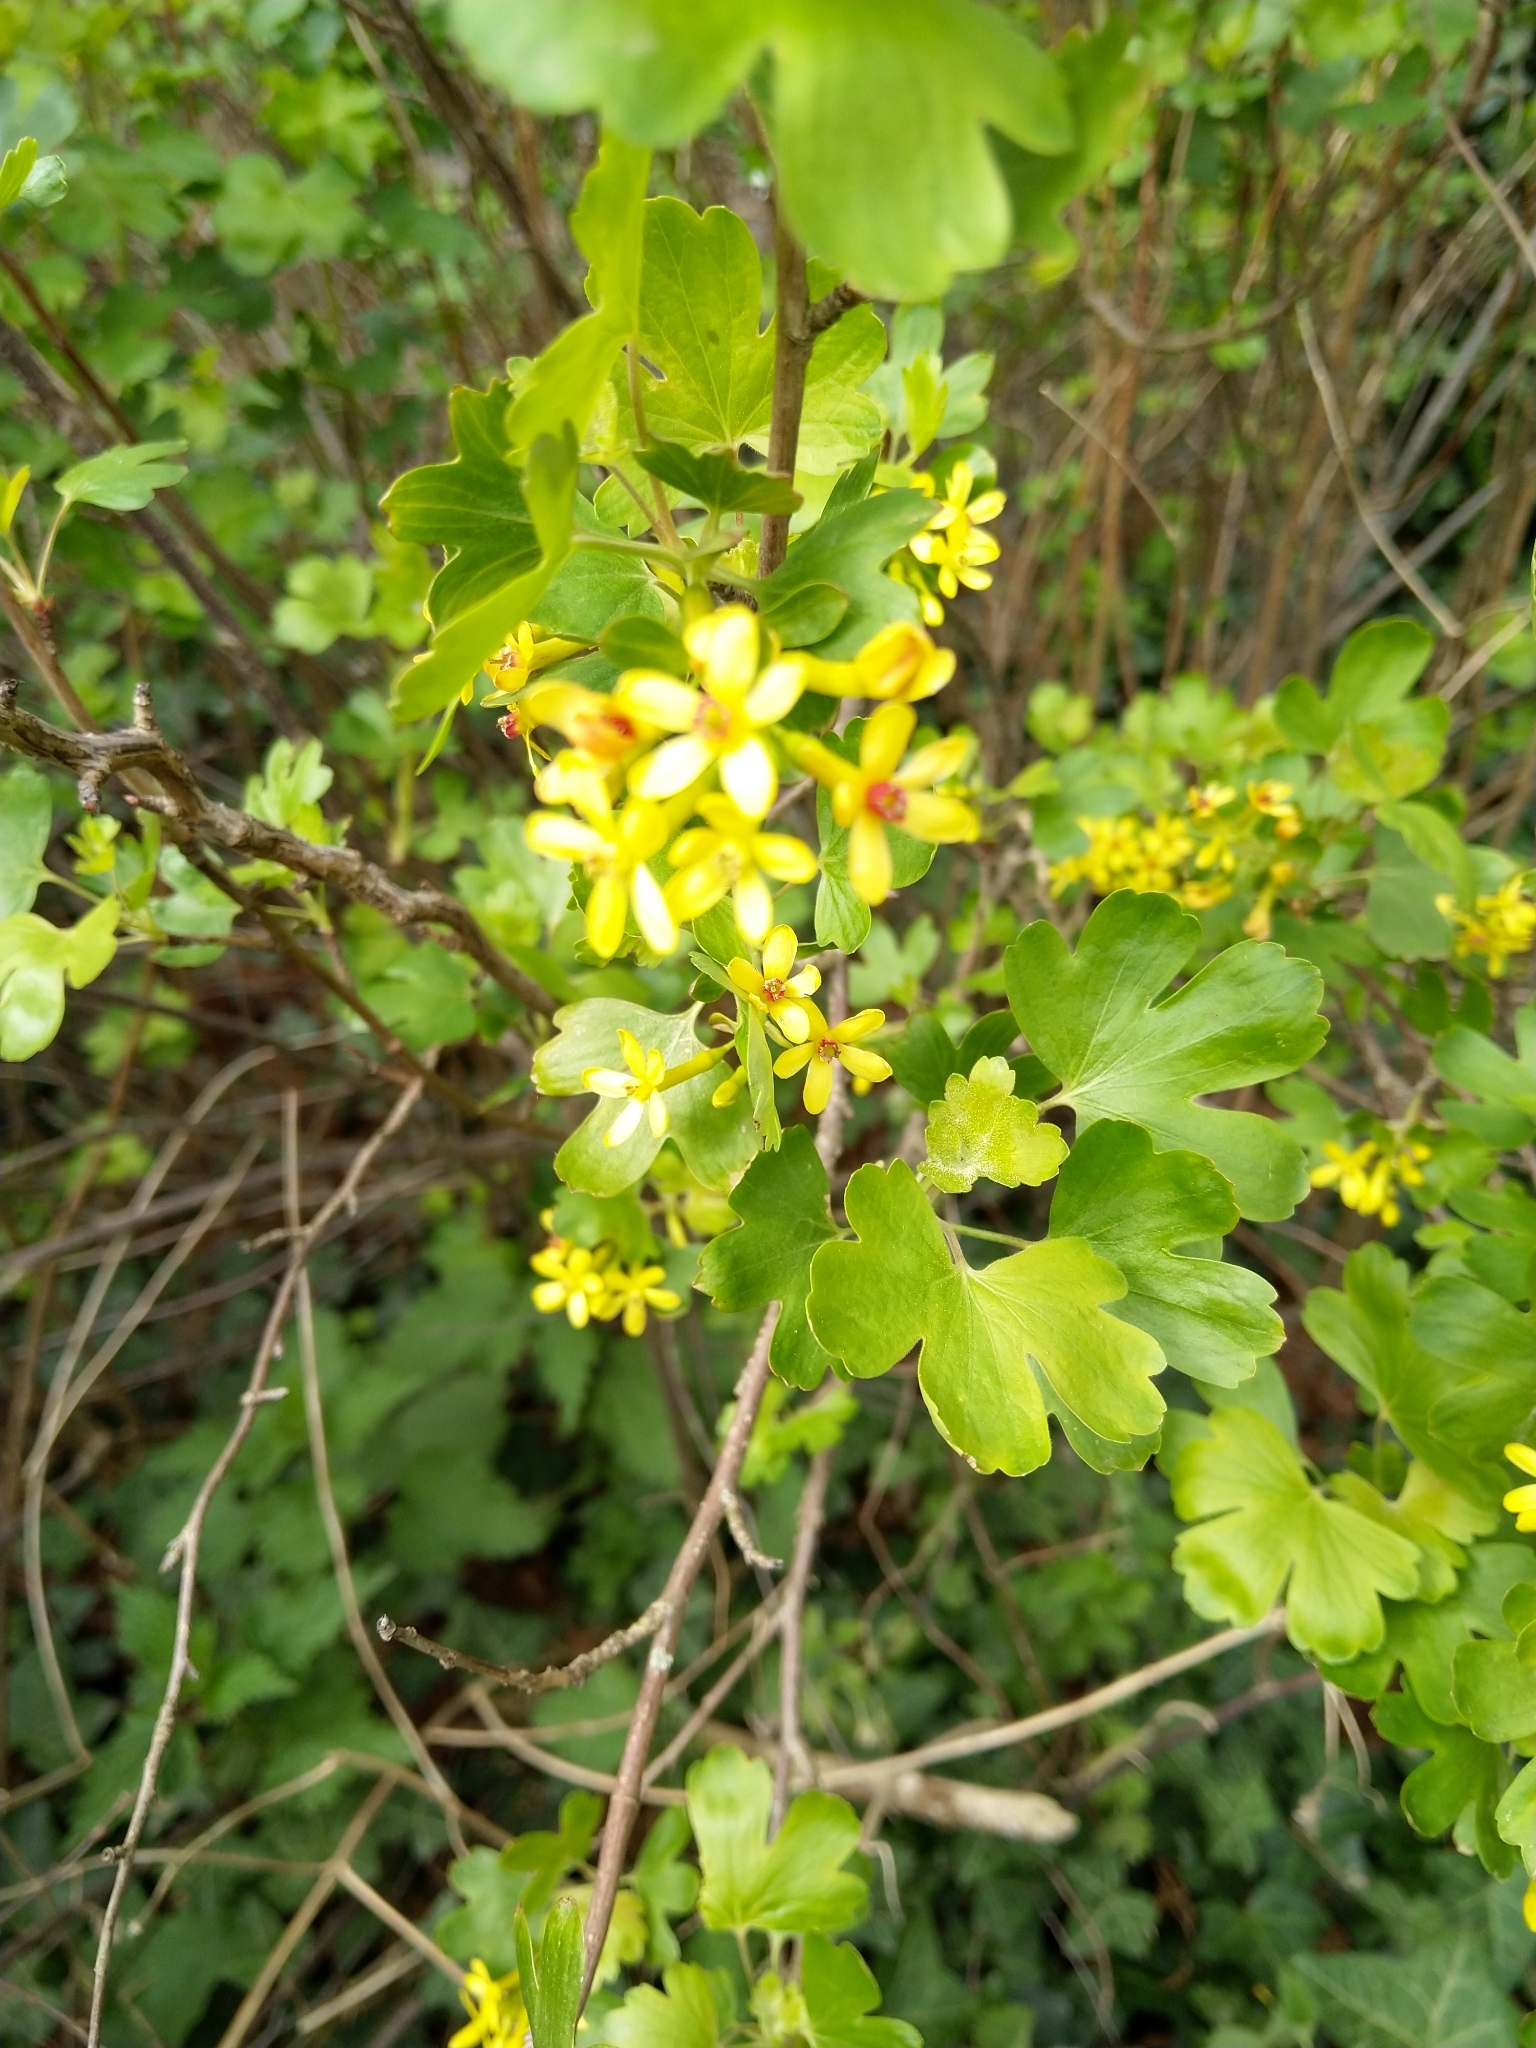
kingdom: Plantae
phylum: Tracheophyta
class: Magnoliopsida
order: Saxifragales
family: Grossulariaceae
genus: Ribes
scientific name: Ribes aureum
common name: Golden currant
